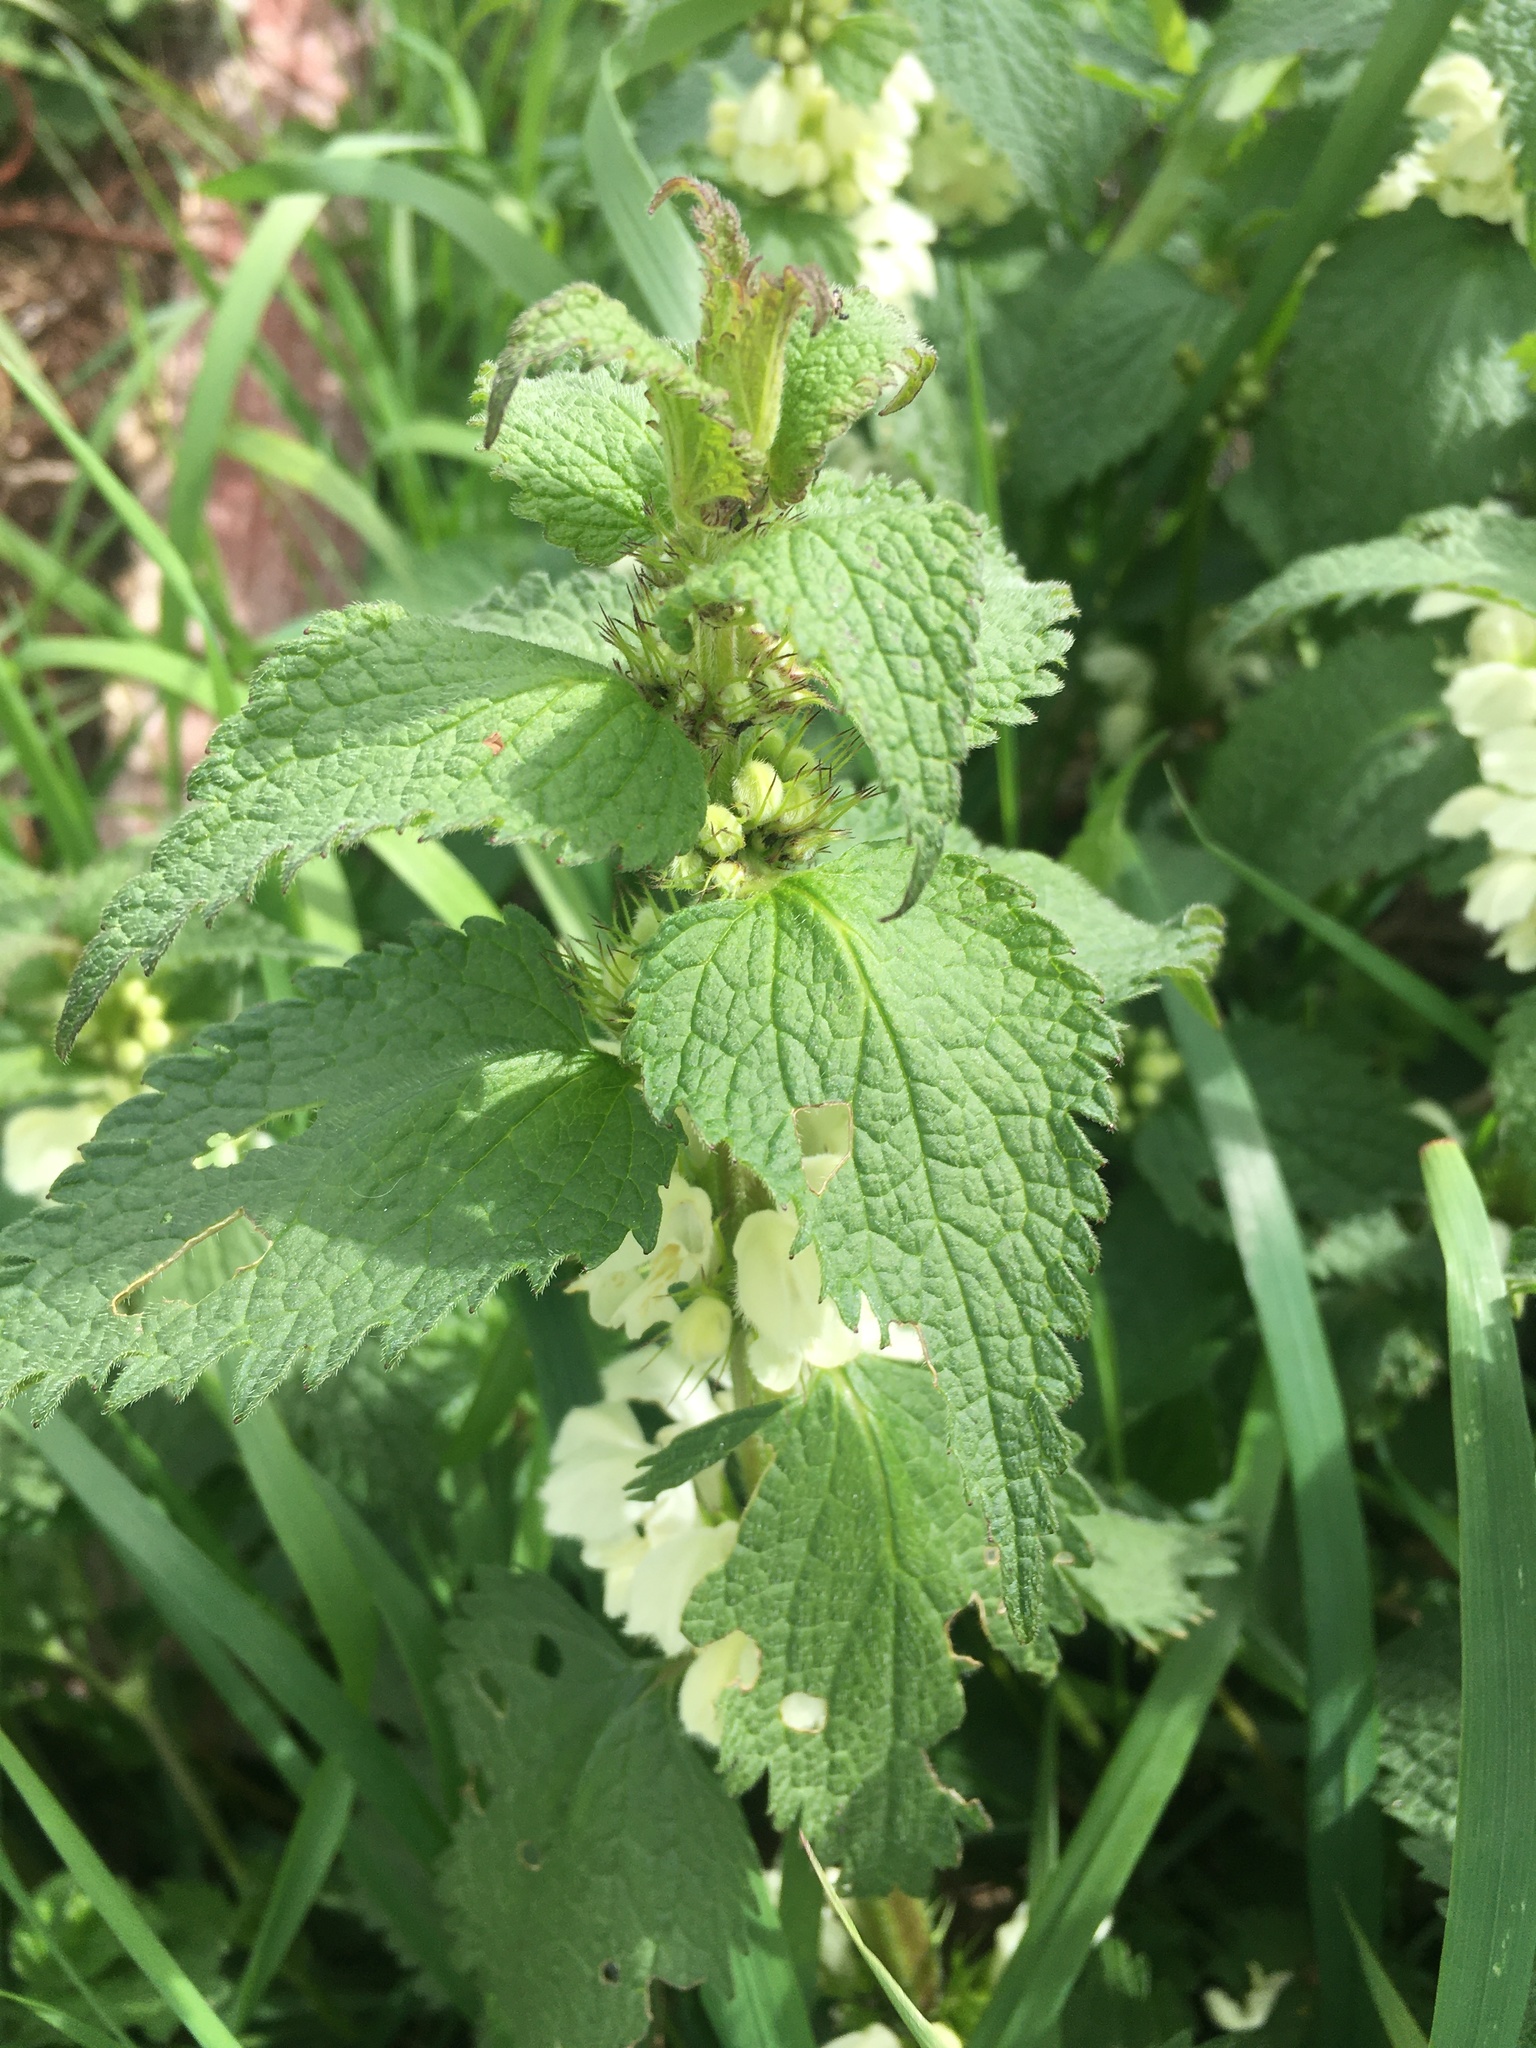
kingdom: Plantae
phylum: Tracheophyta
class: Magnoliopsida
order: Lamiales
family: Lamiaceae
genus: Lamium
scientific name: Lamium album
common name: White dead-nettle
